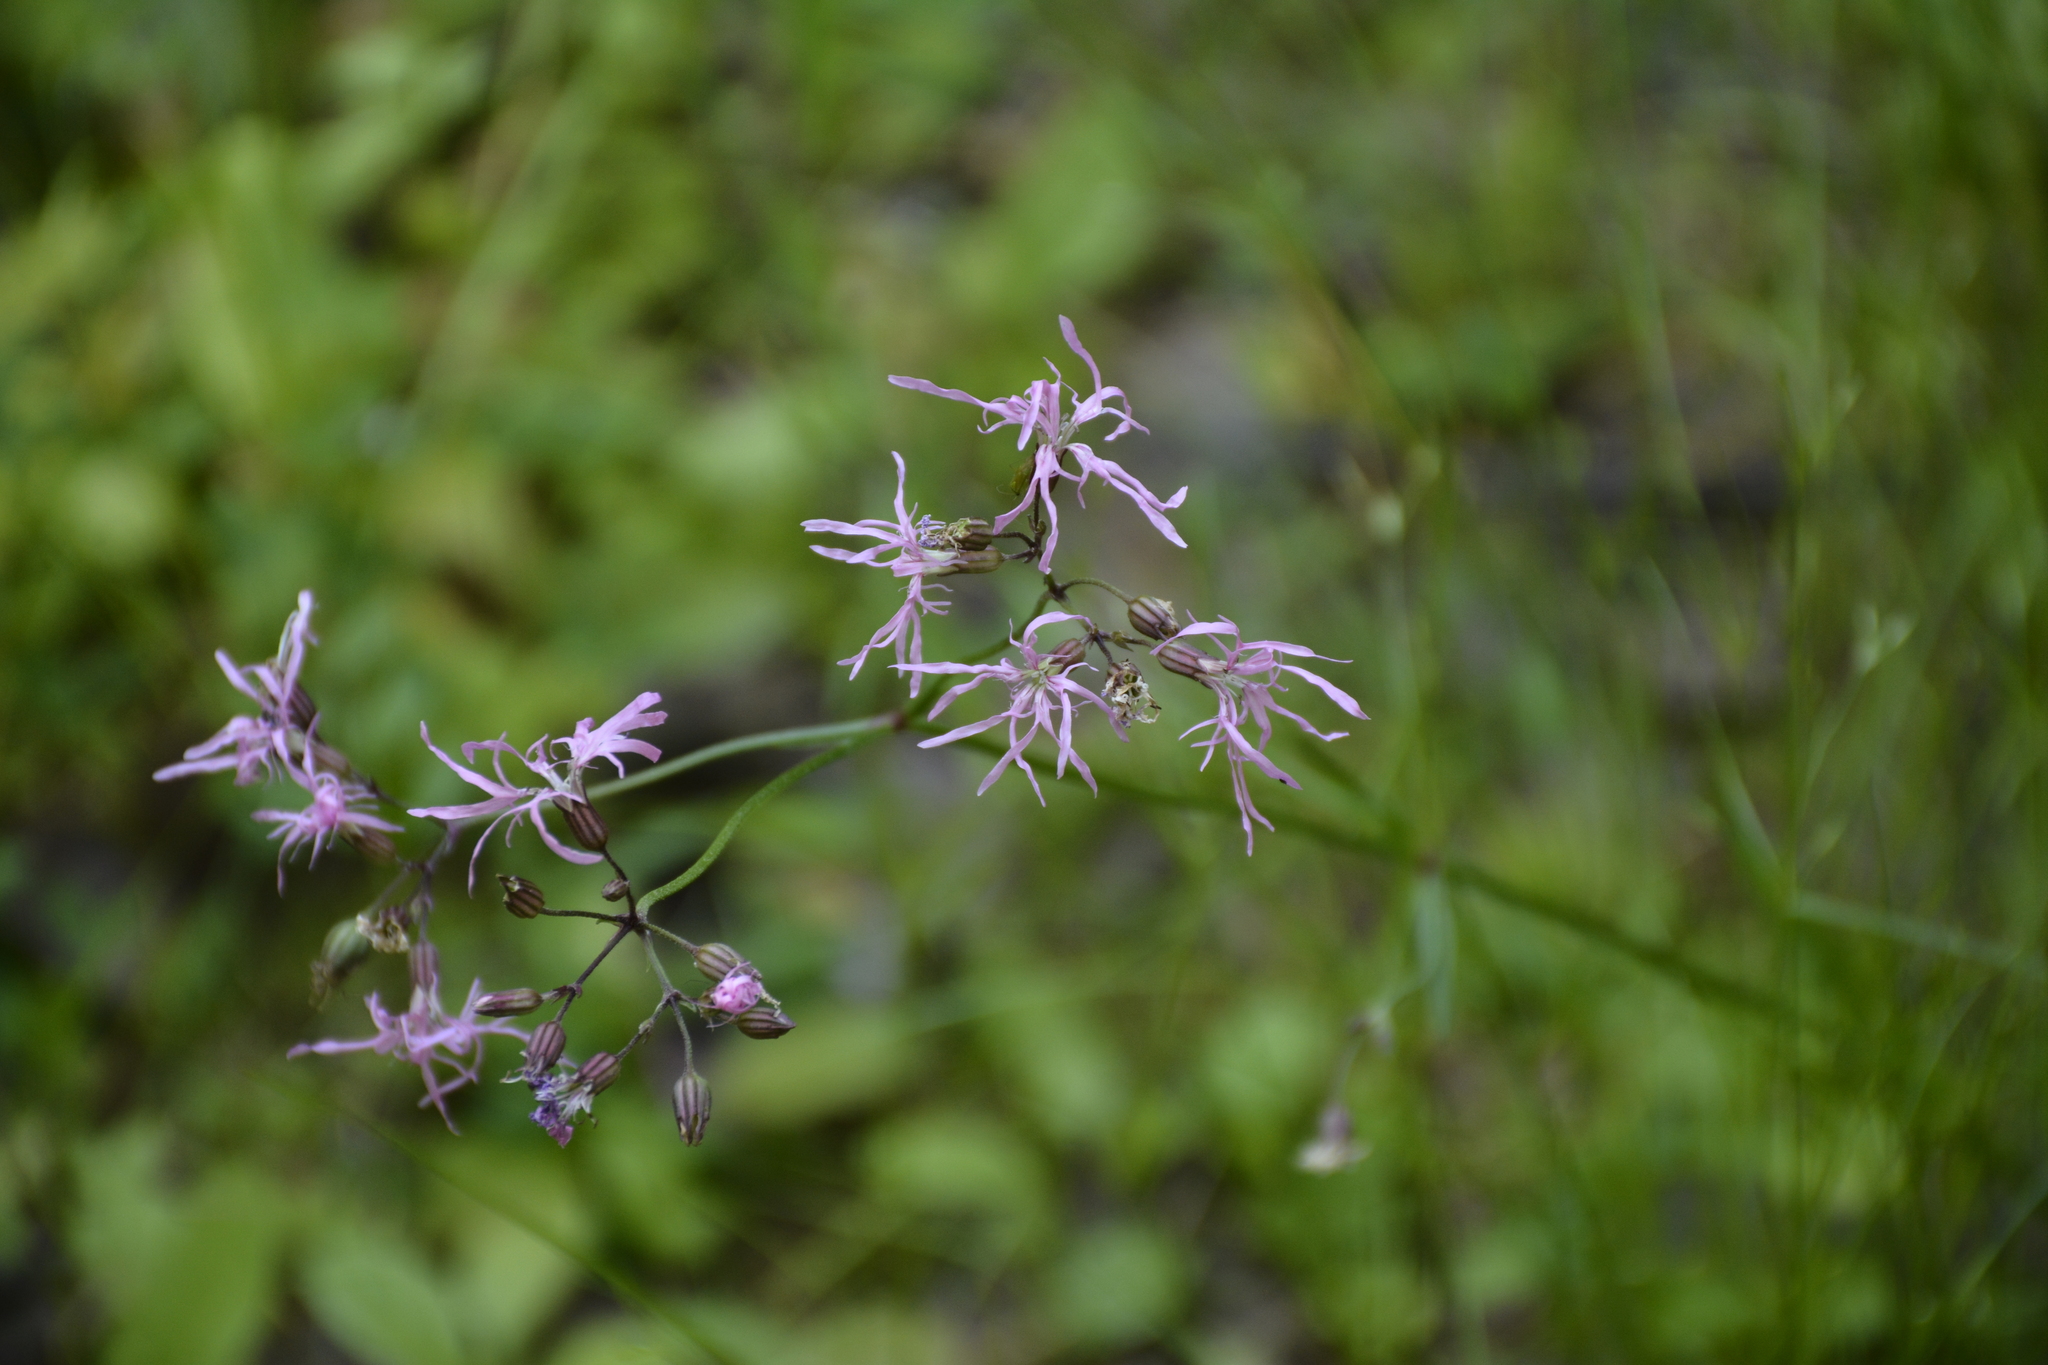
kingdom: Plantae
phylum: Tracheophyta
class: Magnoliopsida
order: Caryophyllales
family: Caryophyllaceae
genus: Silene
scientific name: Silene flos-cuculi
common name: Ragged-robin
